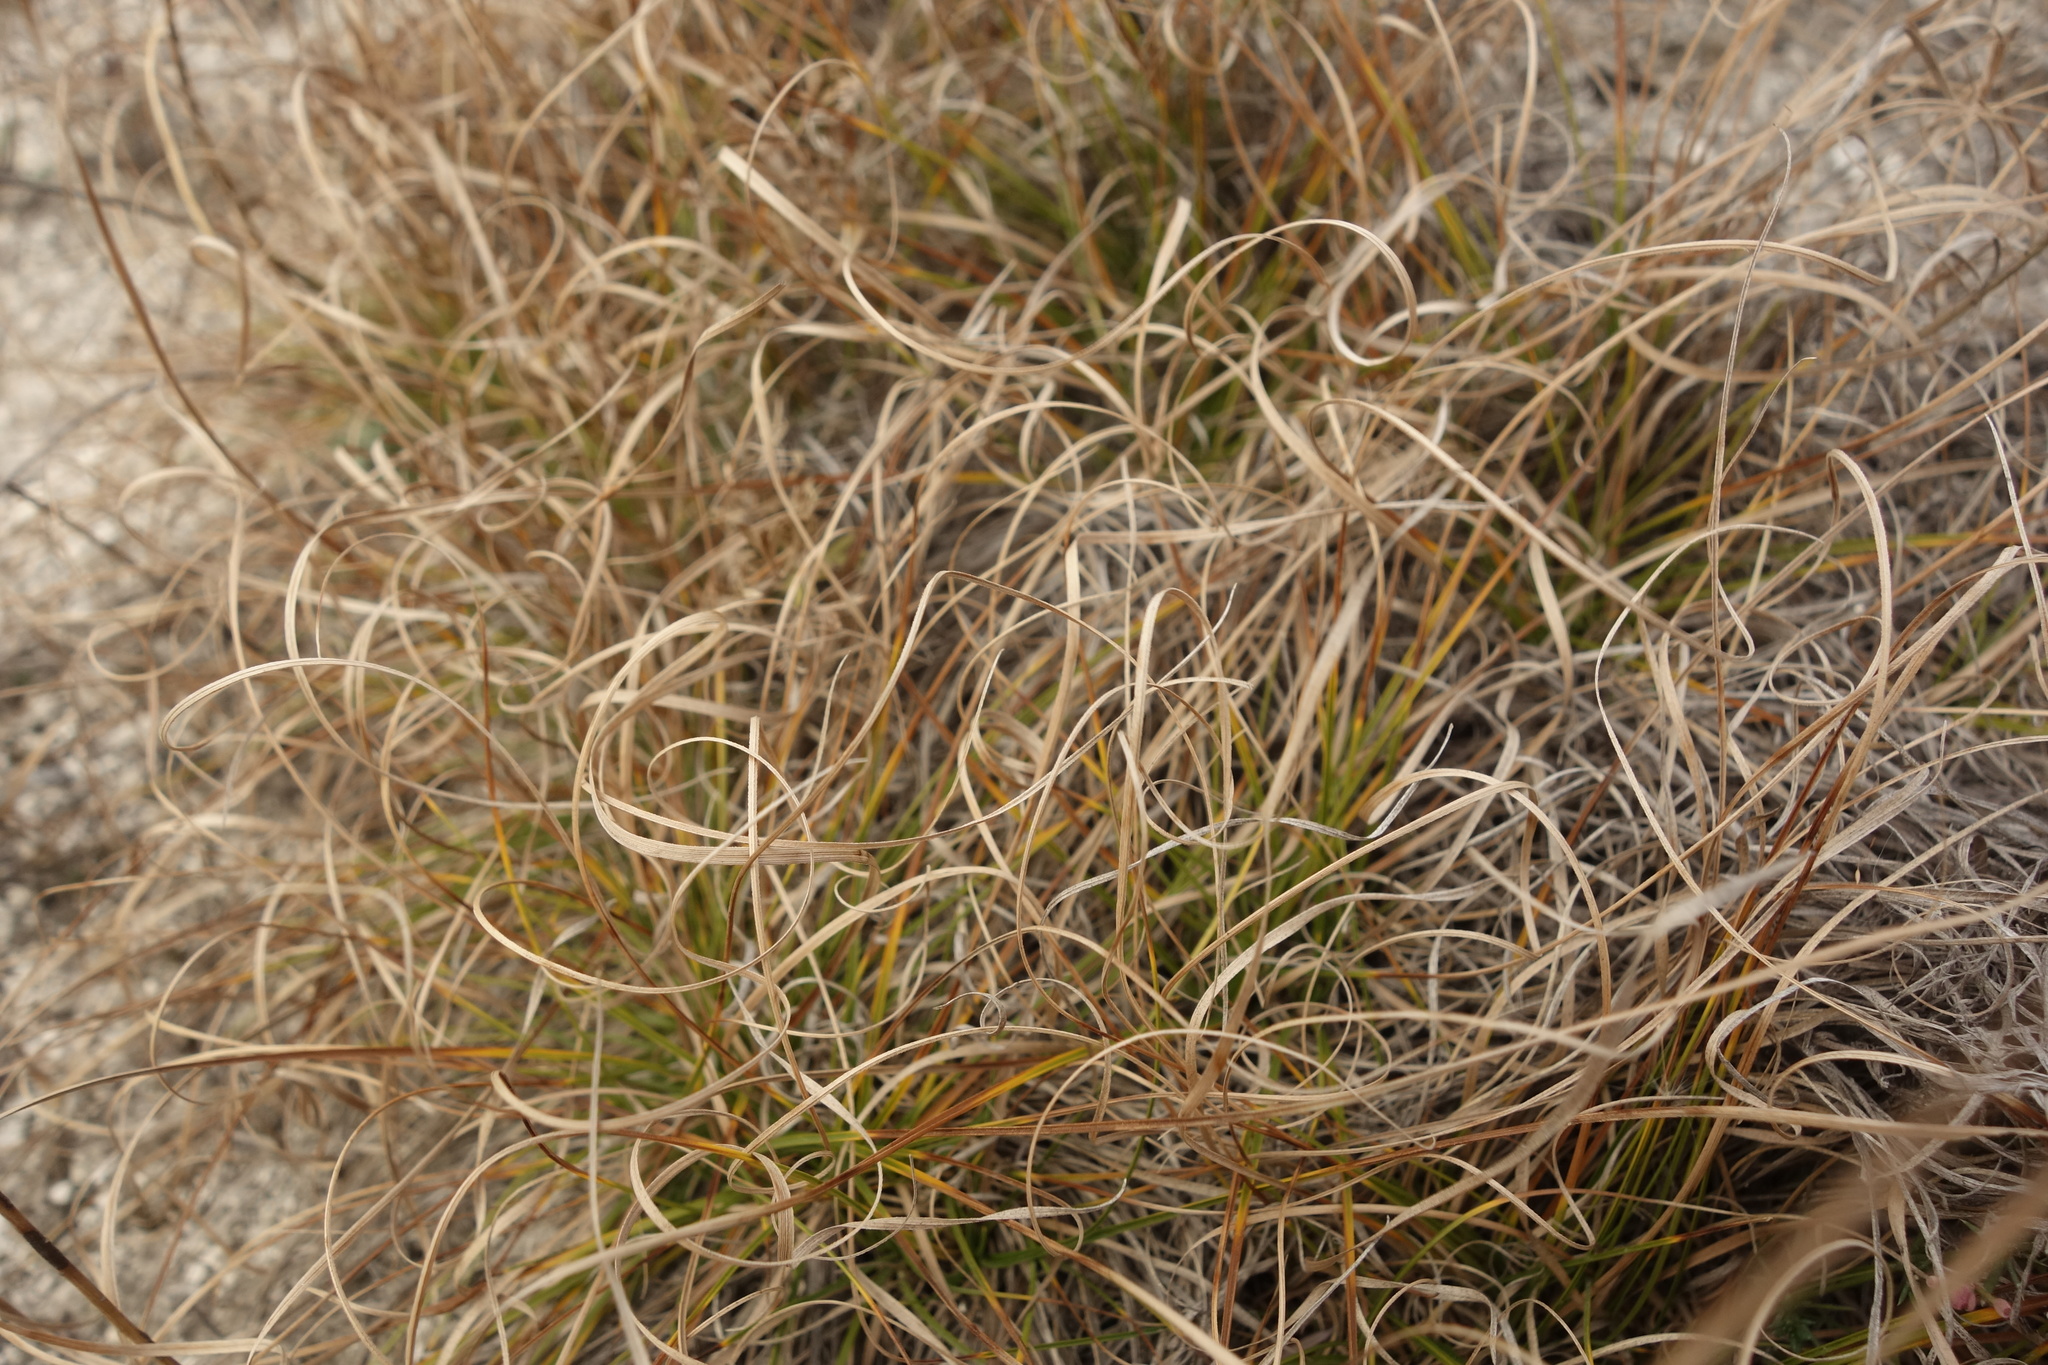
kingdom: Plantae
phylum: Tracheophyta
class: Liliopsida
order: Poales
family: Cyperaceae
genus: Carex
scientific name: Carex humilis
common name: Dwarf sedge
